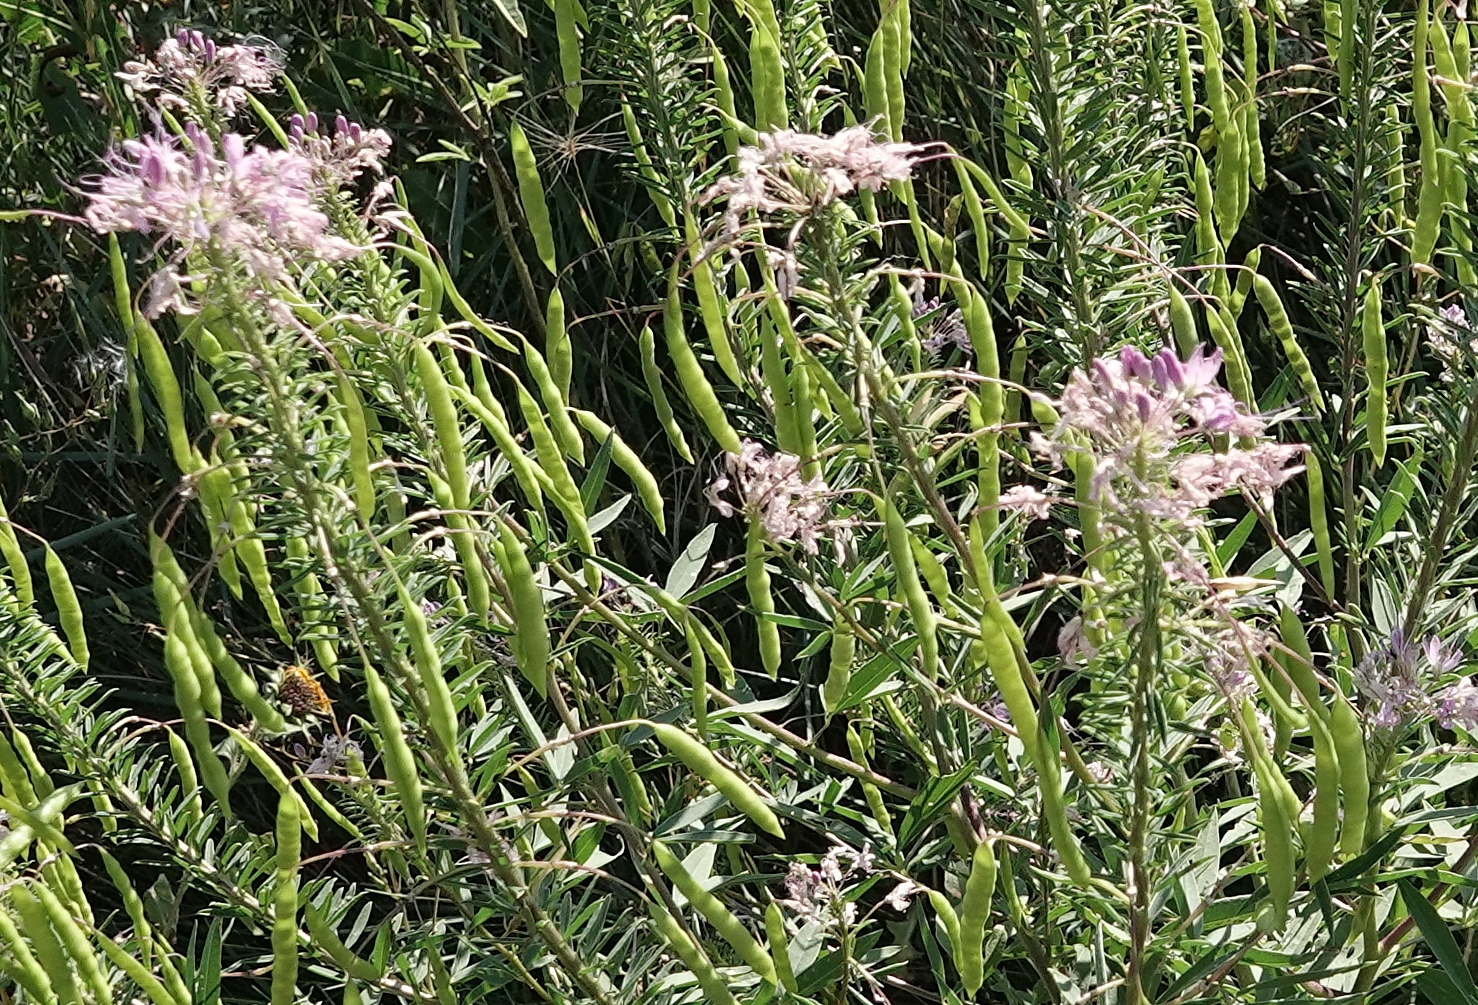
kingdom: Plantae
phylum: Tracheophyta
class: Magnoliopsida
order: Brassicales
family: Cleomaceae
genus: Cleomella
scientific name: Cleomella serrulata
